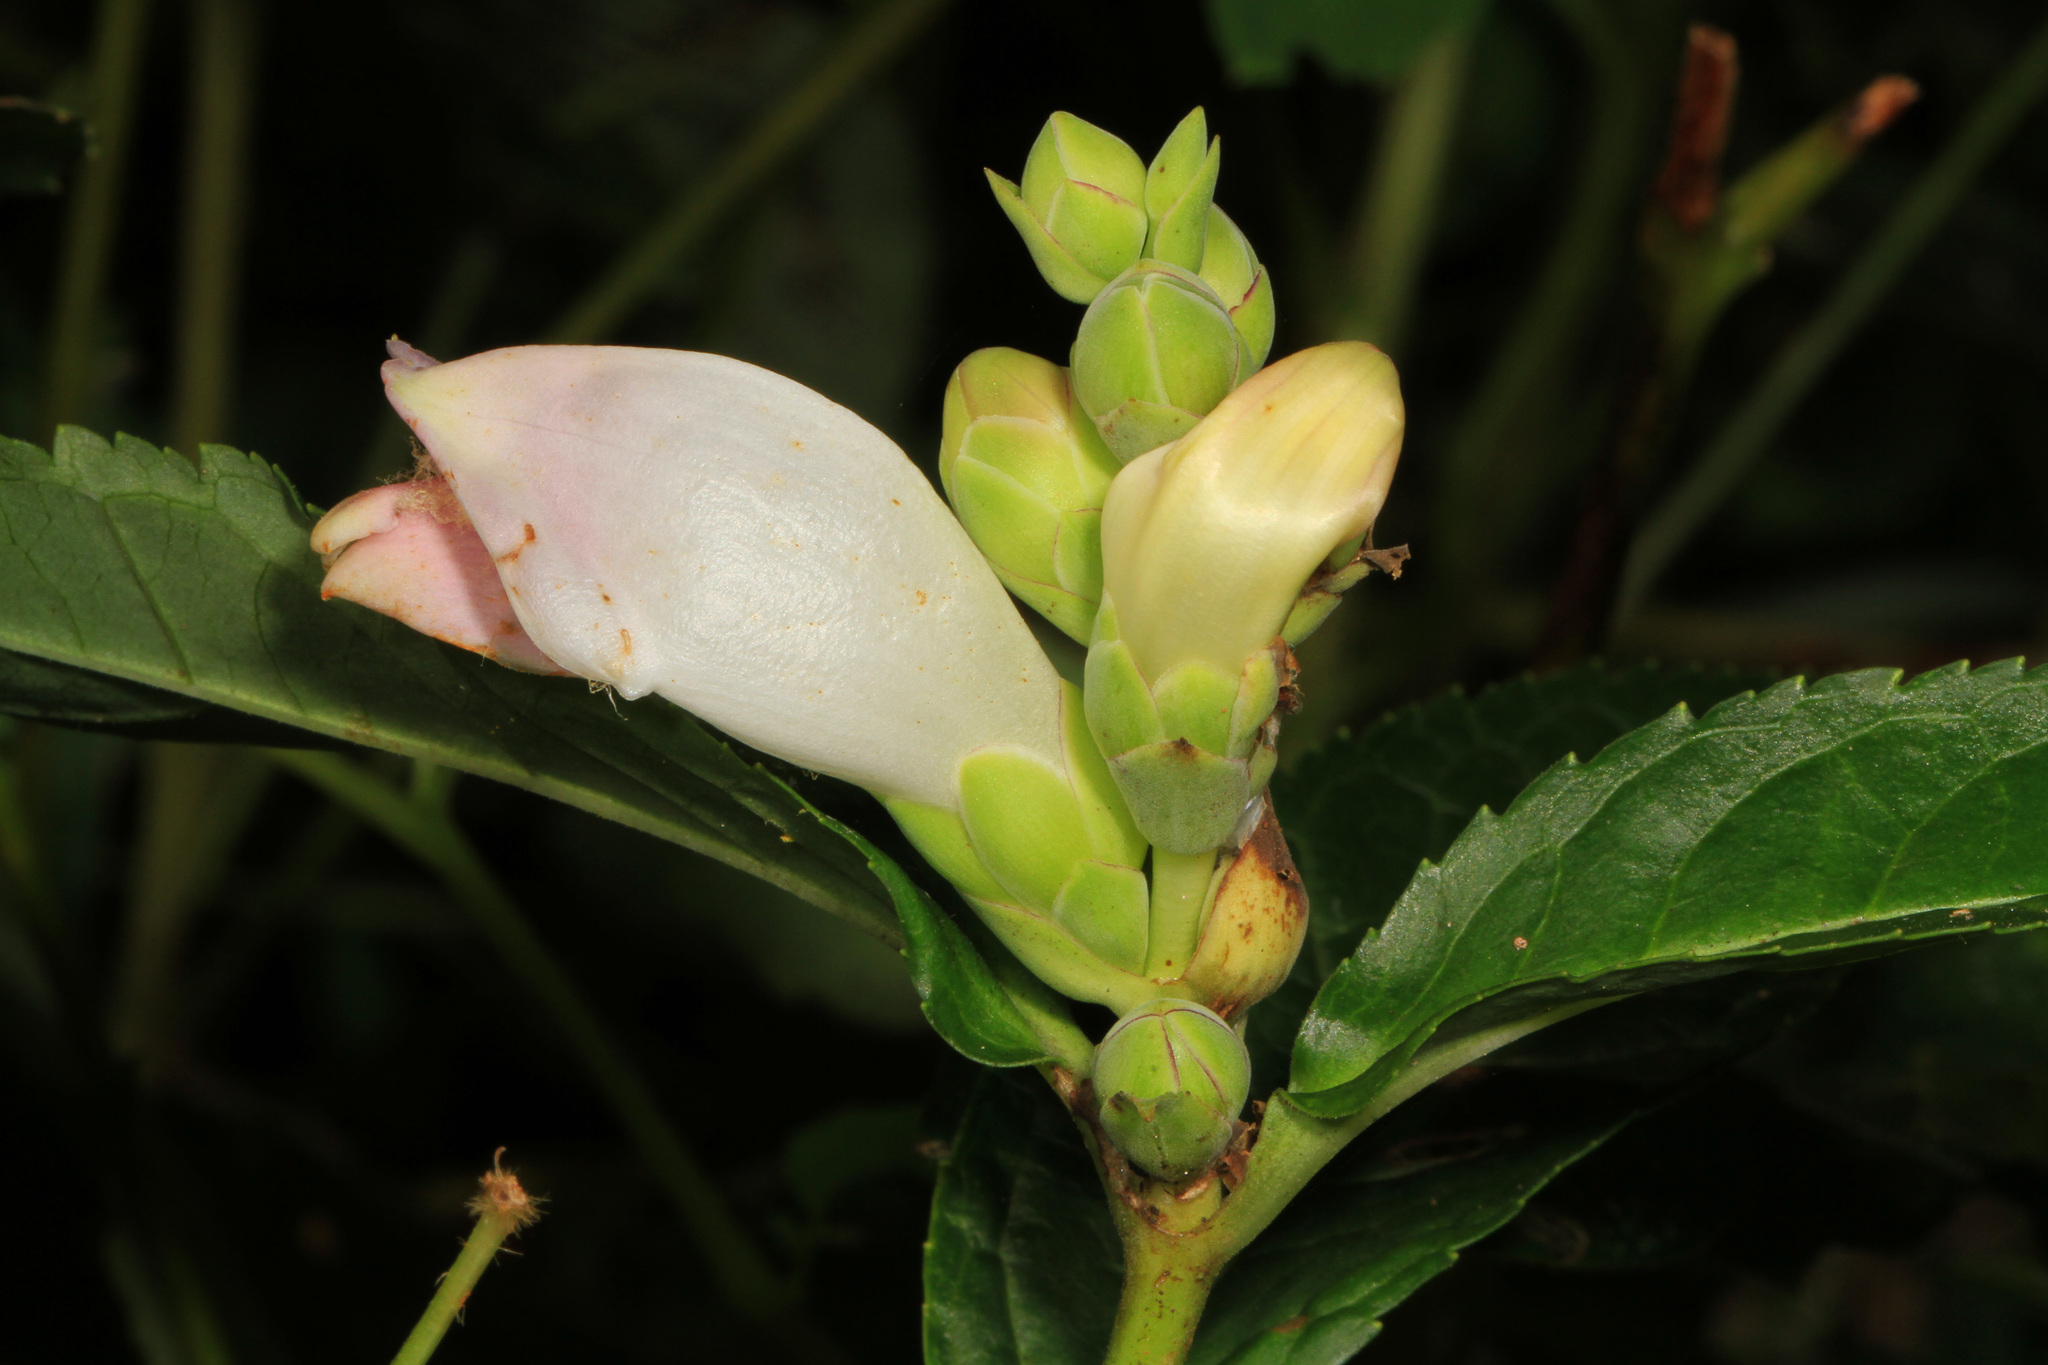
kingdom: Plantae
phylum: Tracheophyta
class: Magnoliopsida
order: Lamiales
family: Plantaginaceae
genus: Chelone
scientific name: Chelone glabra
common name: Snakehead
